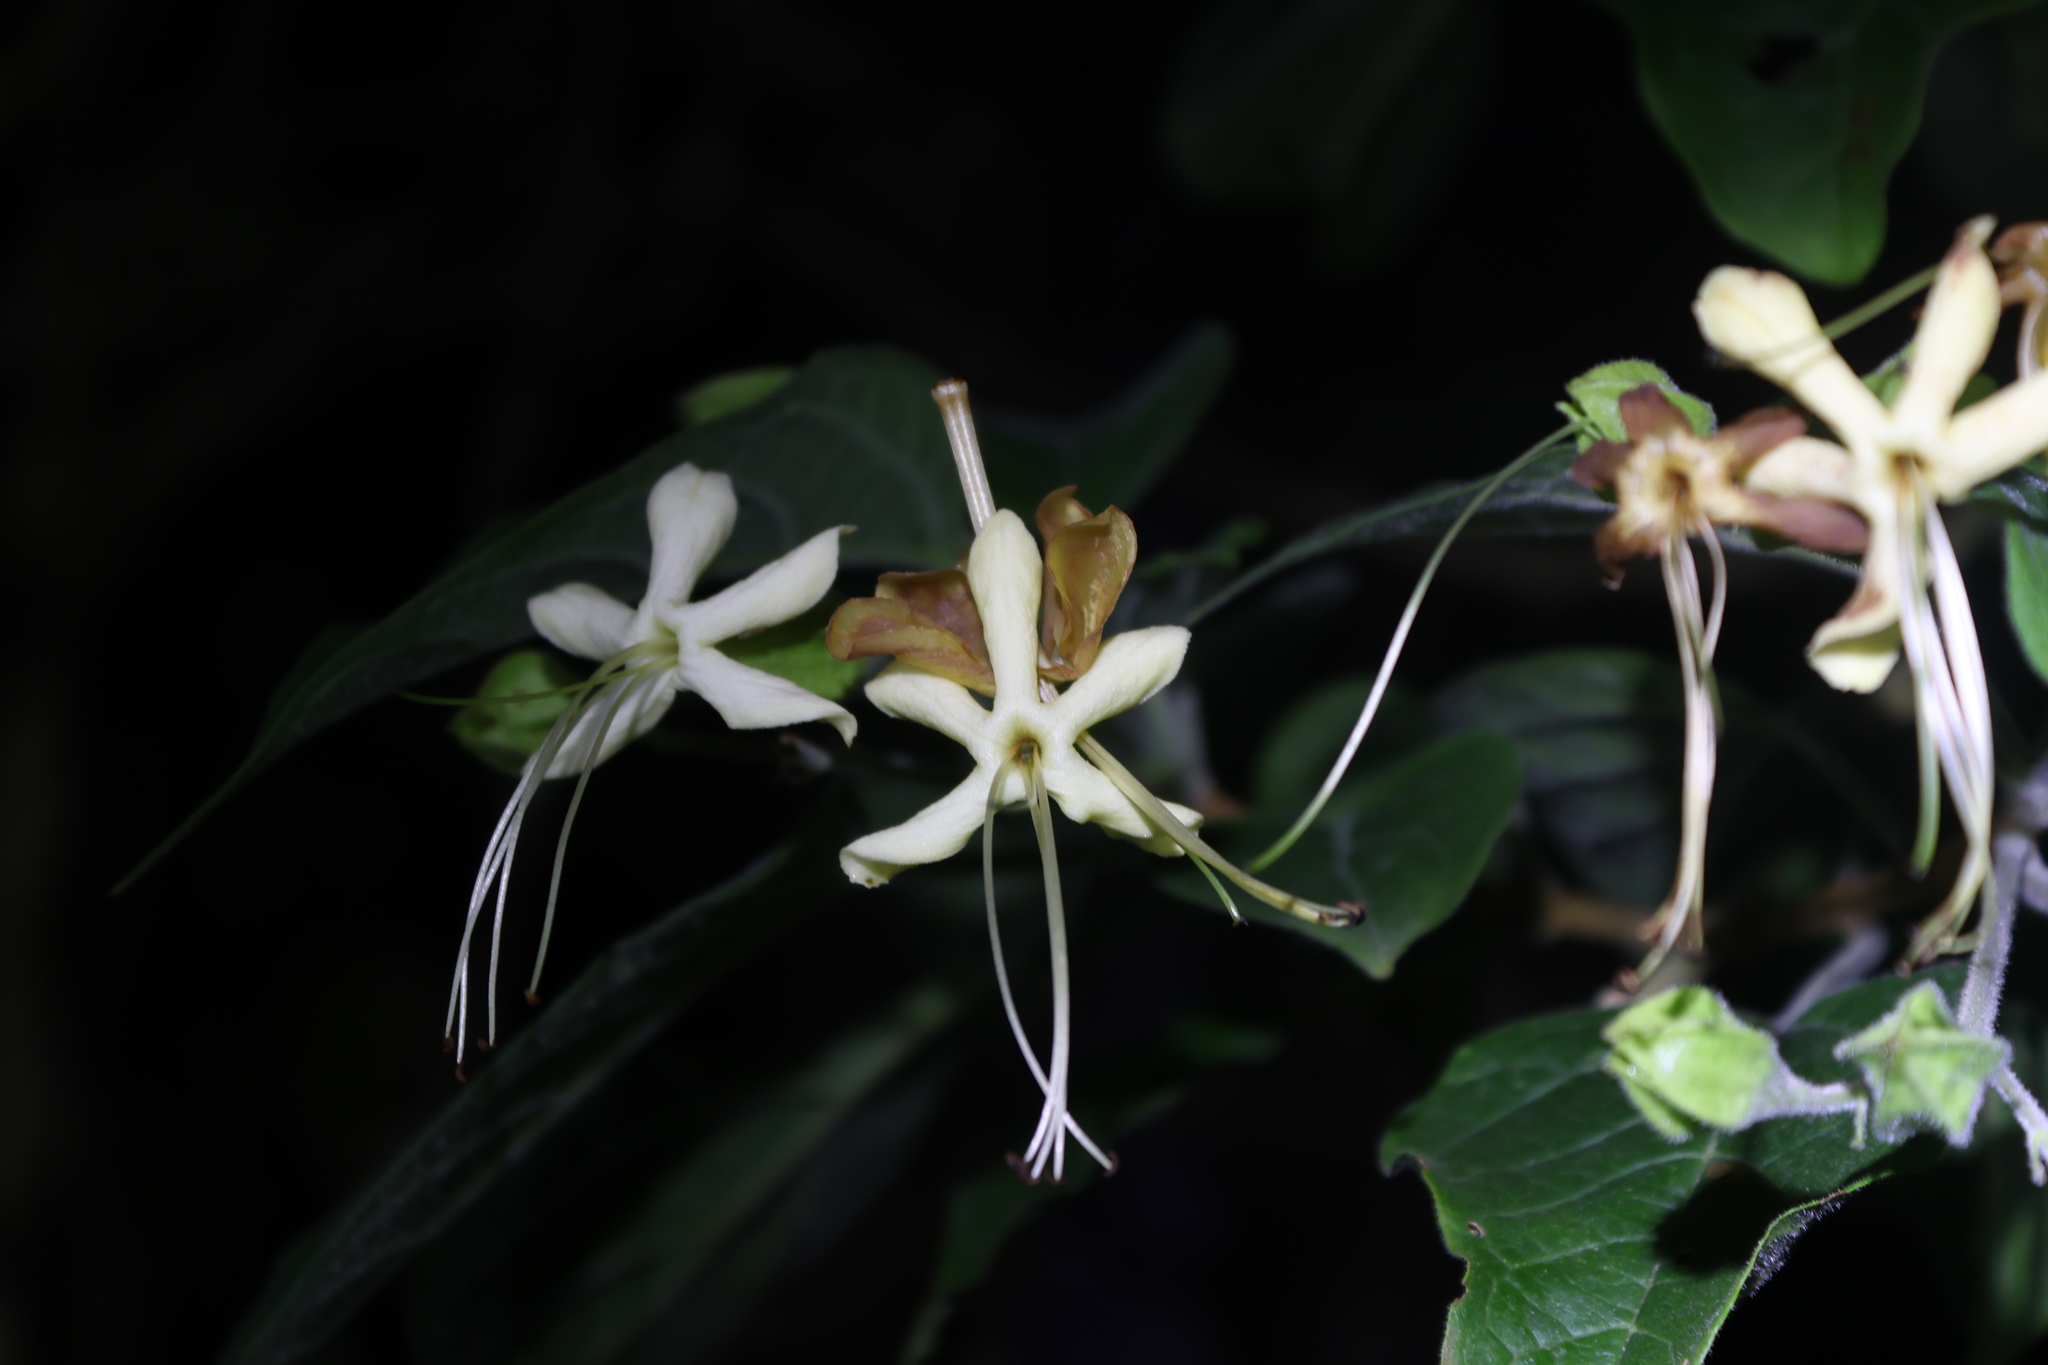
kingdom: Plantae
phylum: Tracheophyta
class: Magnoliopsida
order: Lamiales
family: Lamiaceae
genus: Clerodendrum
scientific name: Clerodendrum trichotomum
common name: Harlequin glorybower
